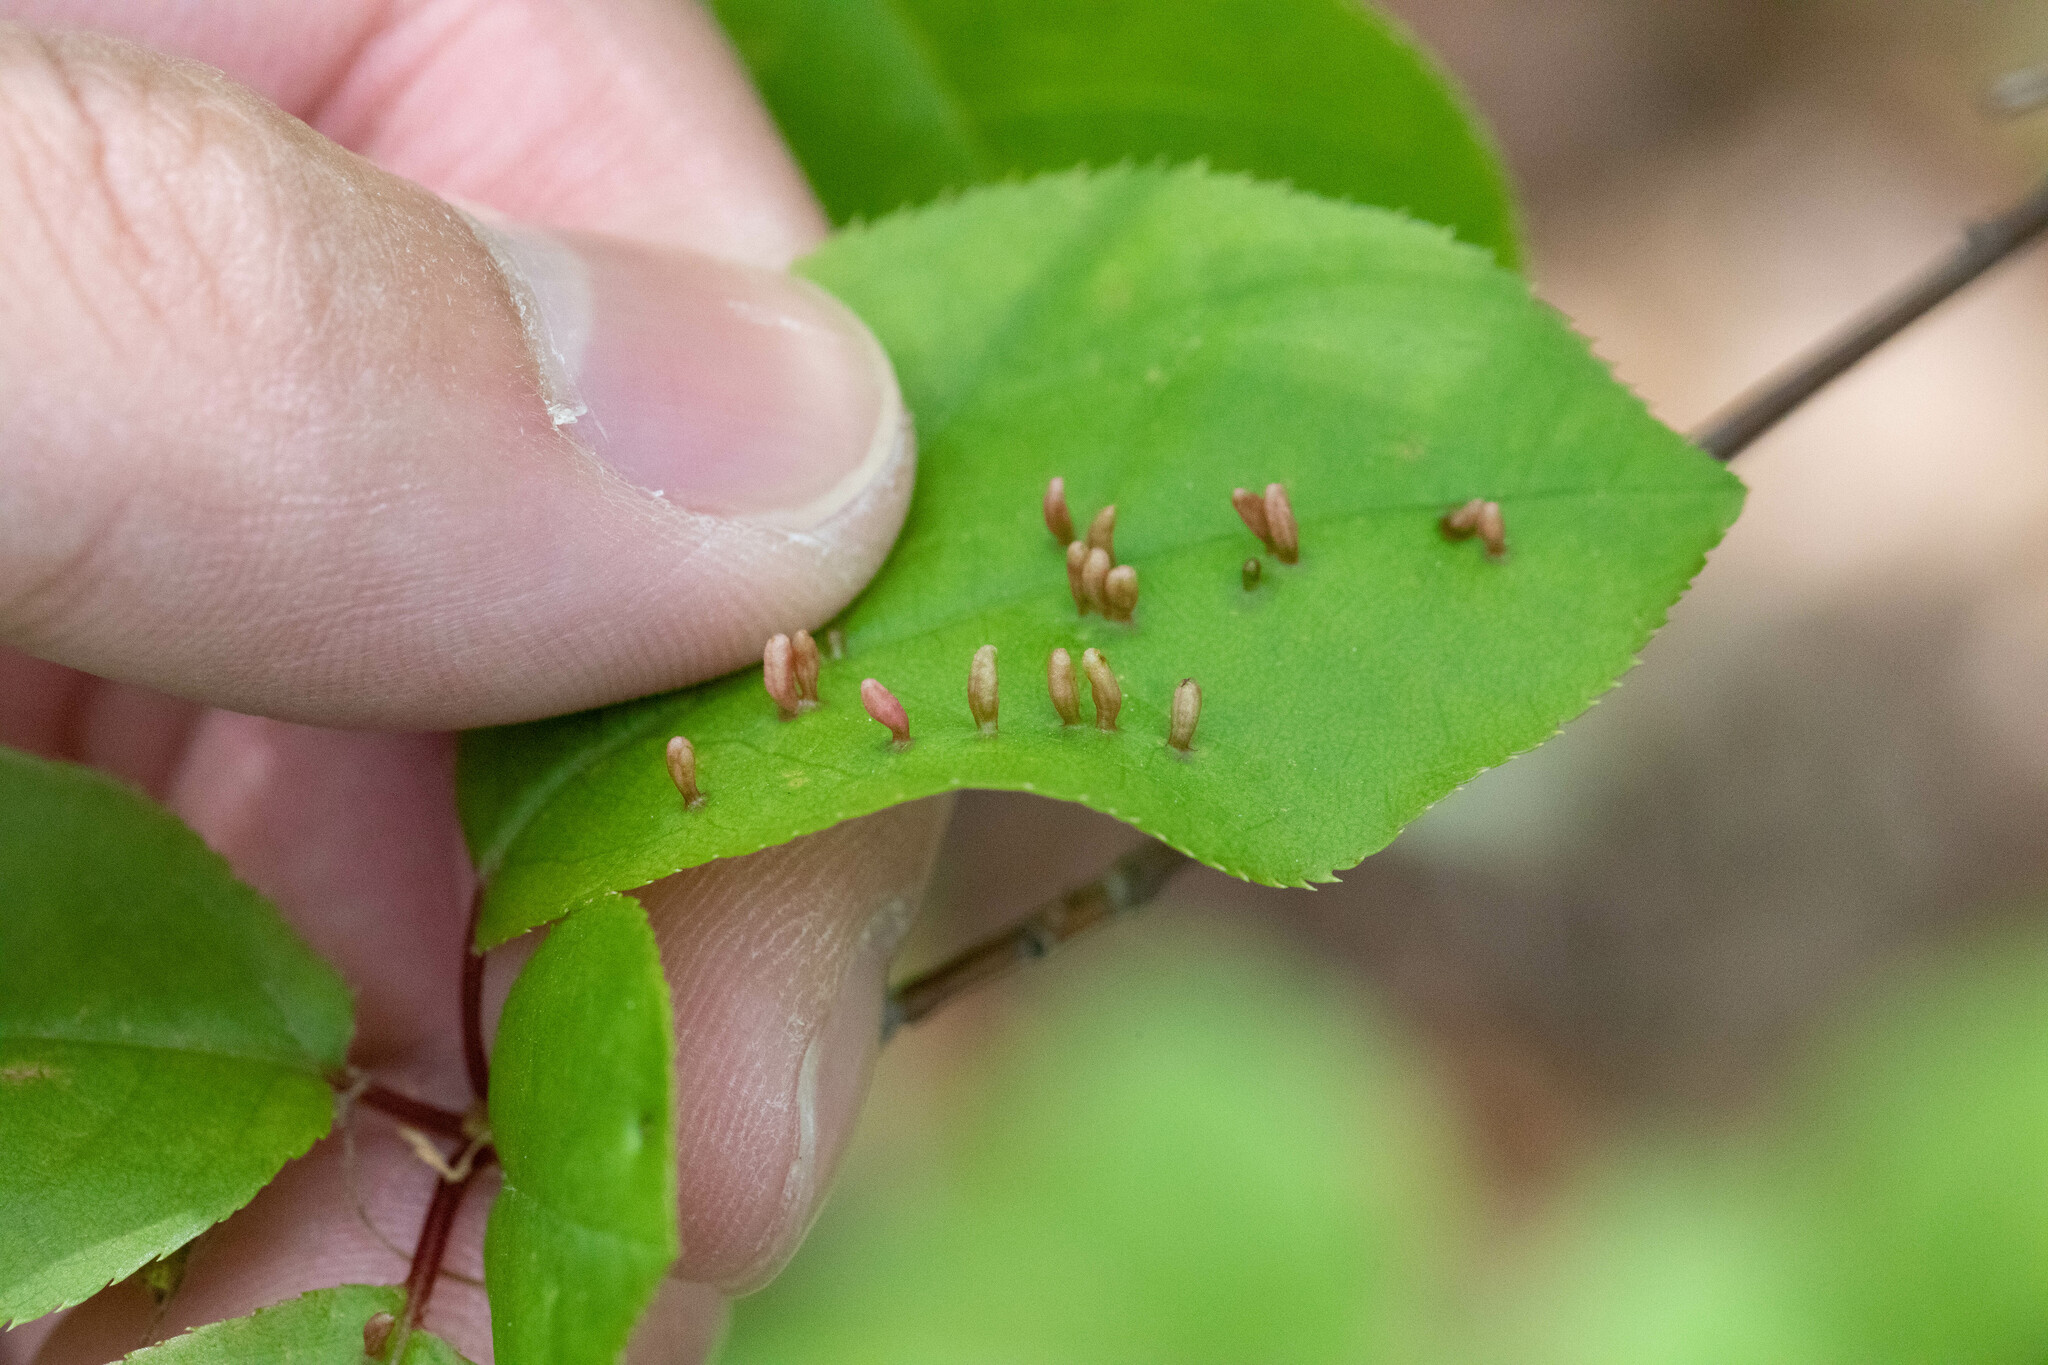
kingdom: Animalia
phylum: Arthropoda
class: Arachnida
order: Trombidiformes
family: Eriophyidae
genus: Eriophyes
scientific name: Eriophyes emarginatae
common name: Plum leaf gall mite
